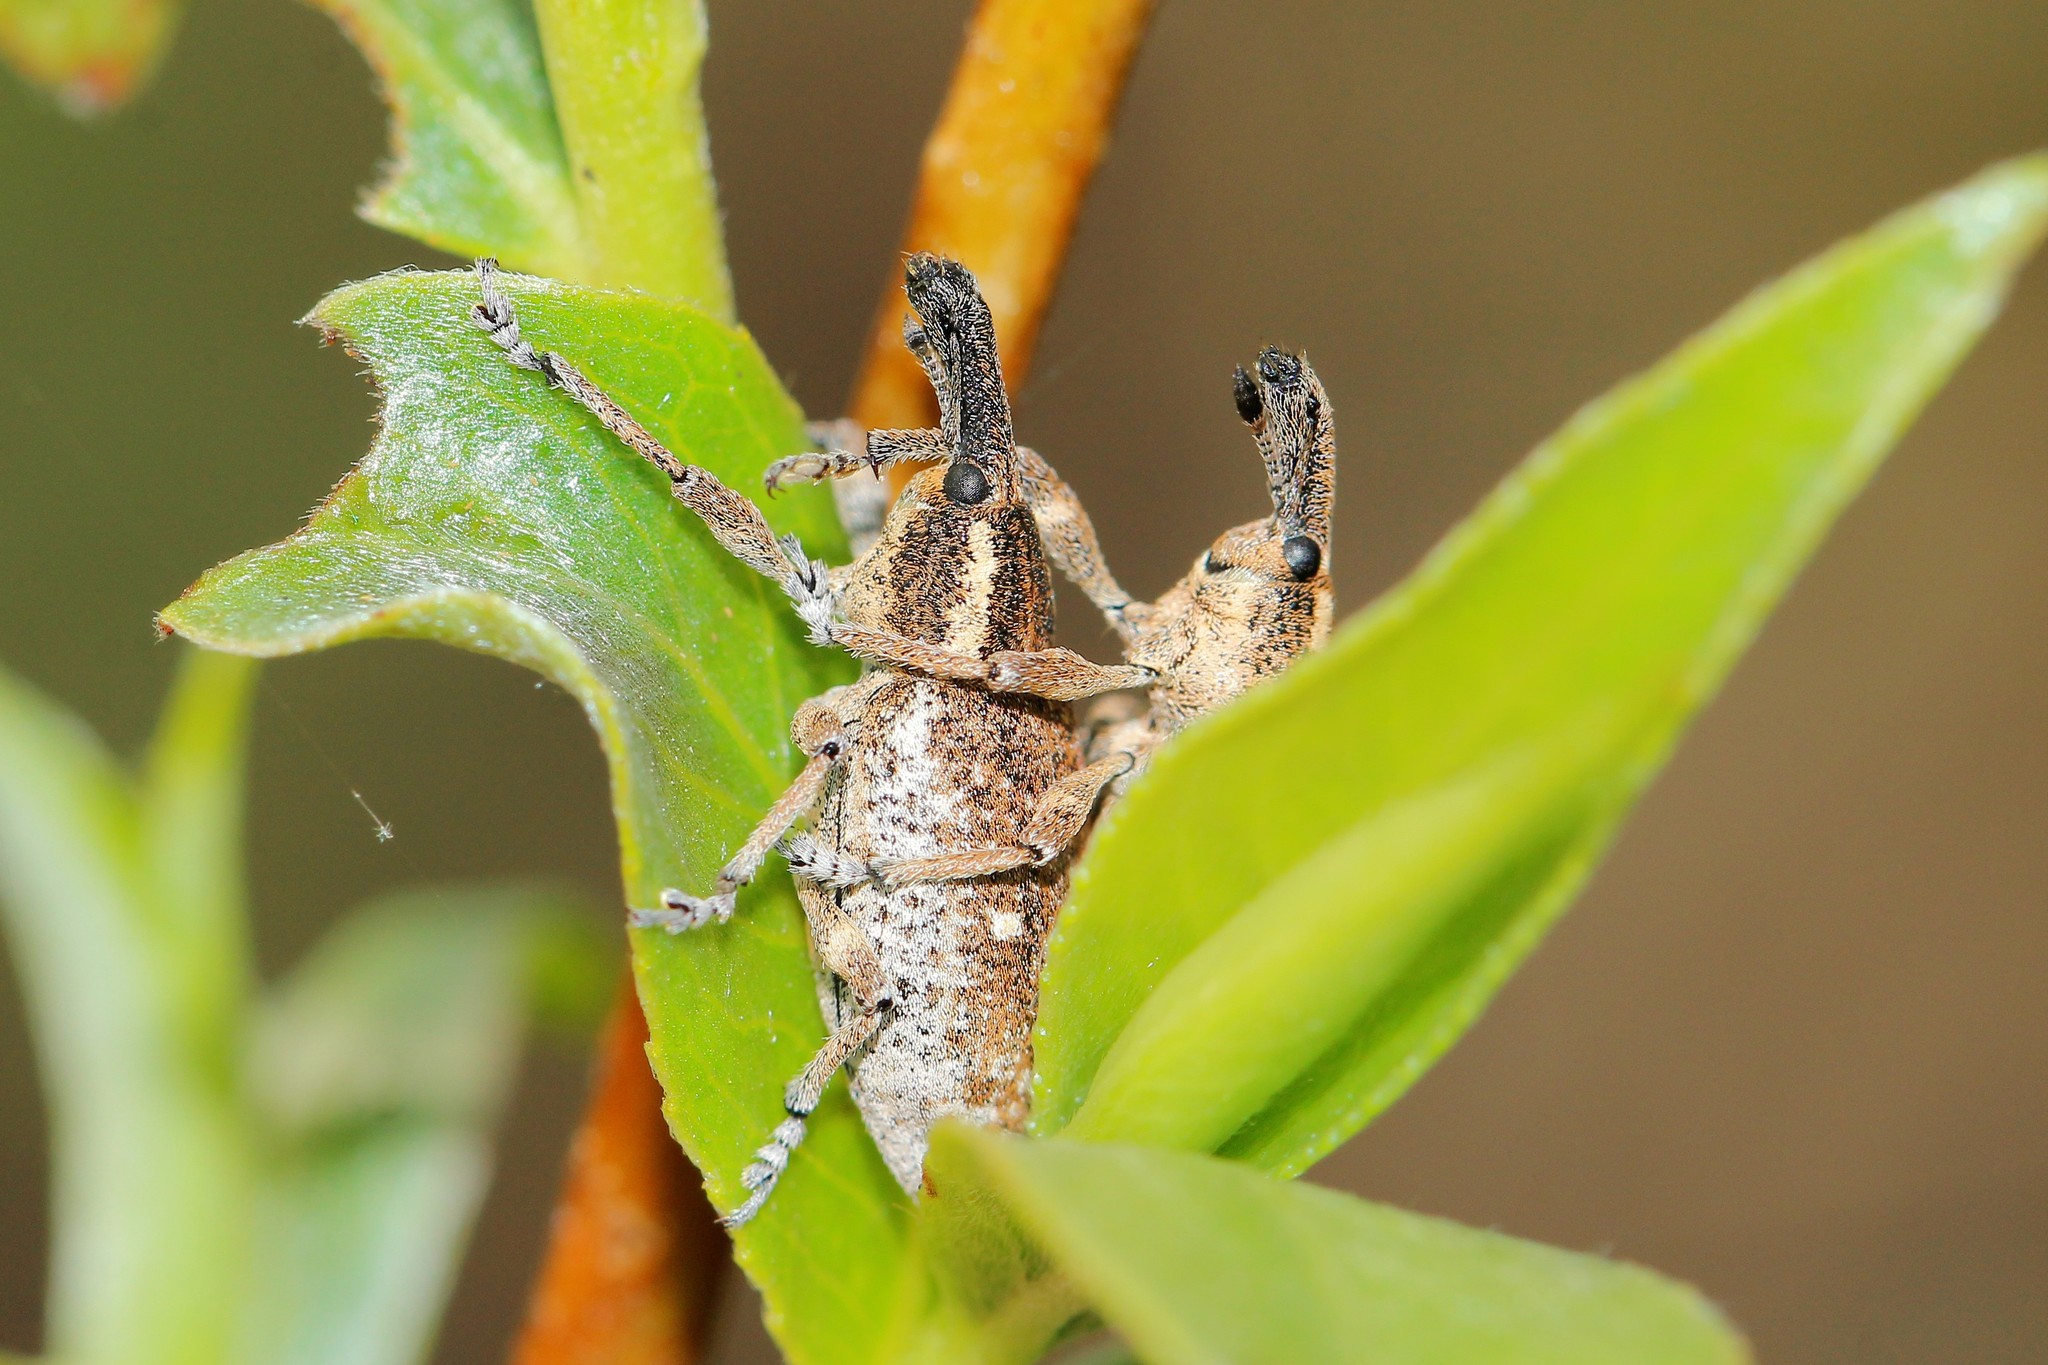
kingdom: Animalia
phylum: Arthropoda
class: Insecta
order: Coleoptera
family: Curculionidae
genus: Lepyrus
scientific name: Lepyrus palustris
